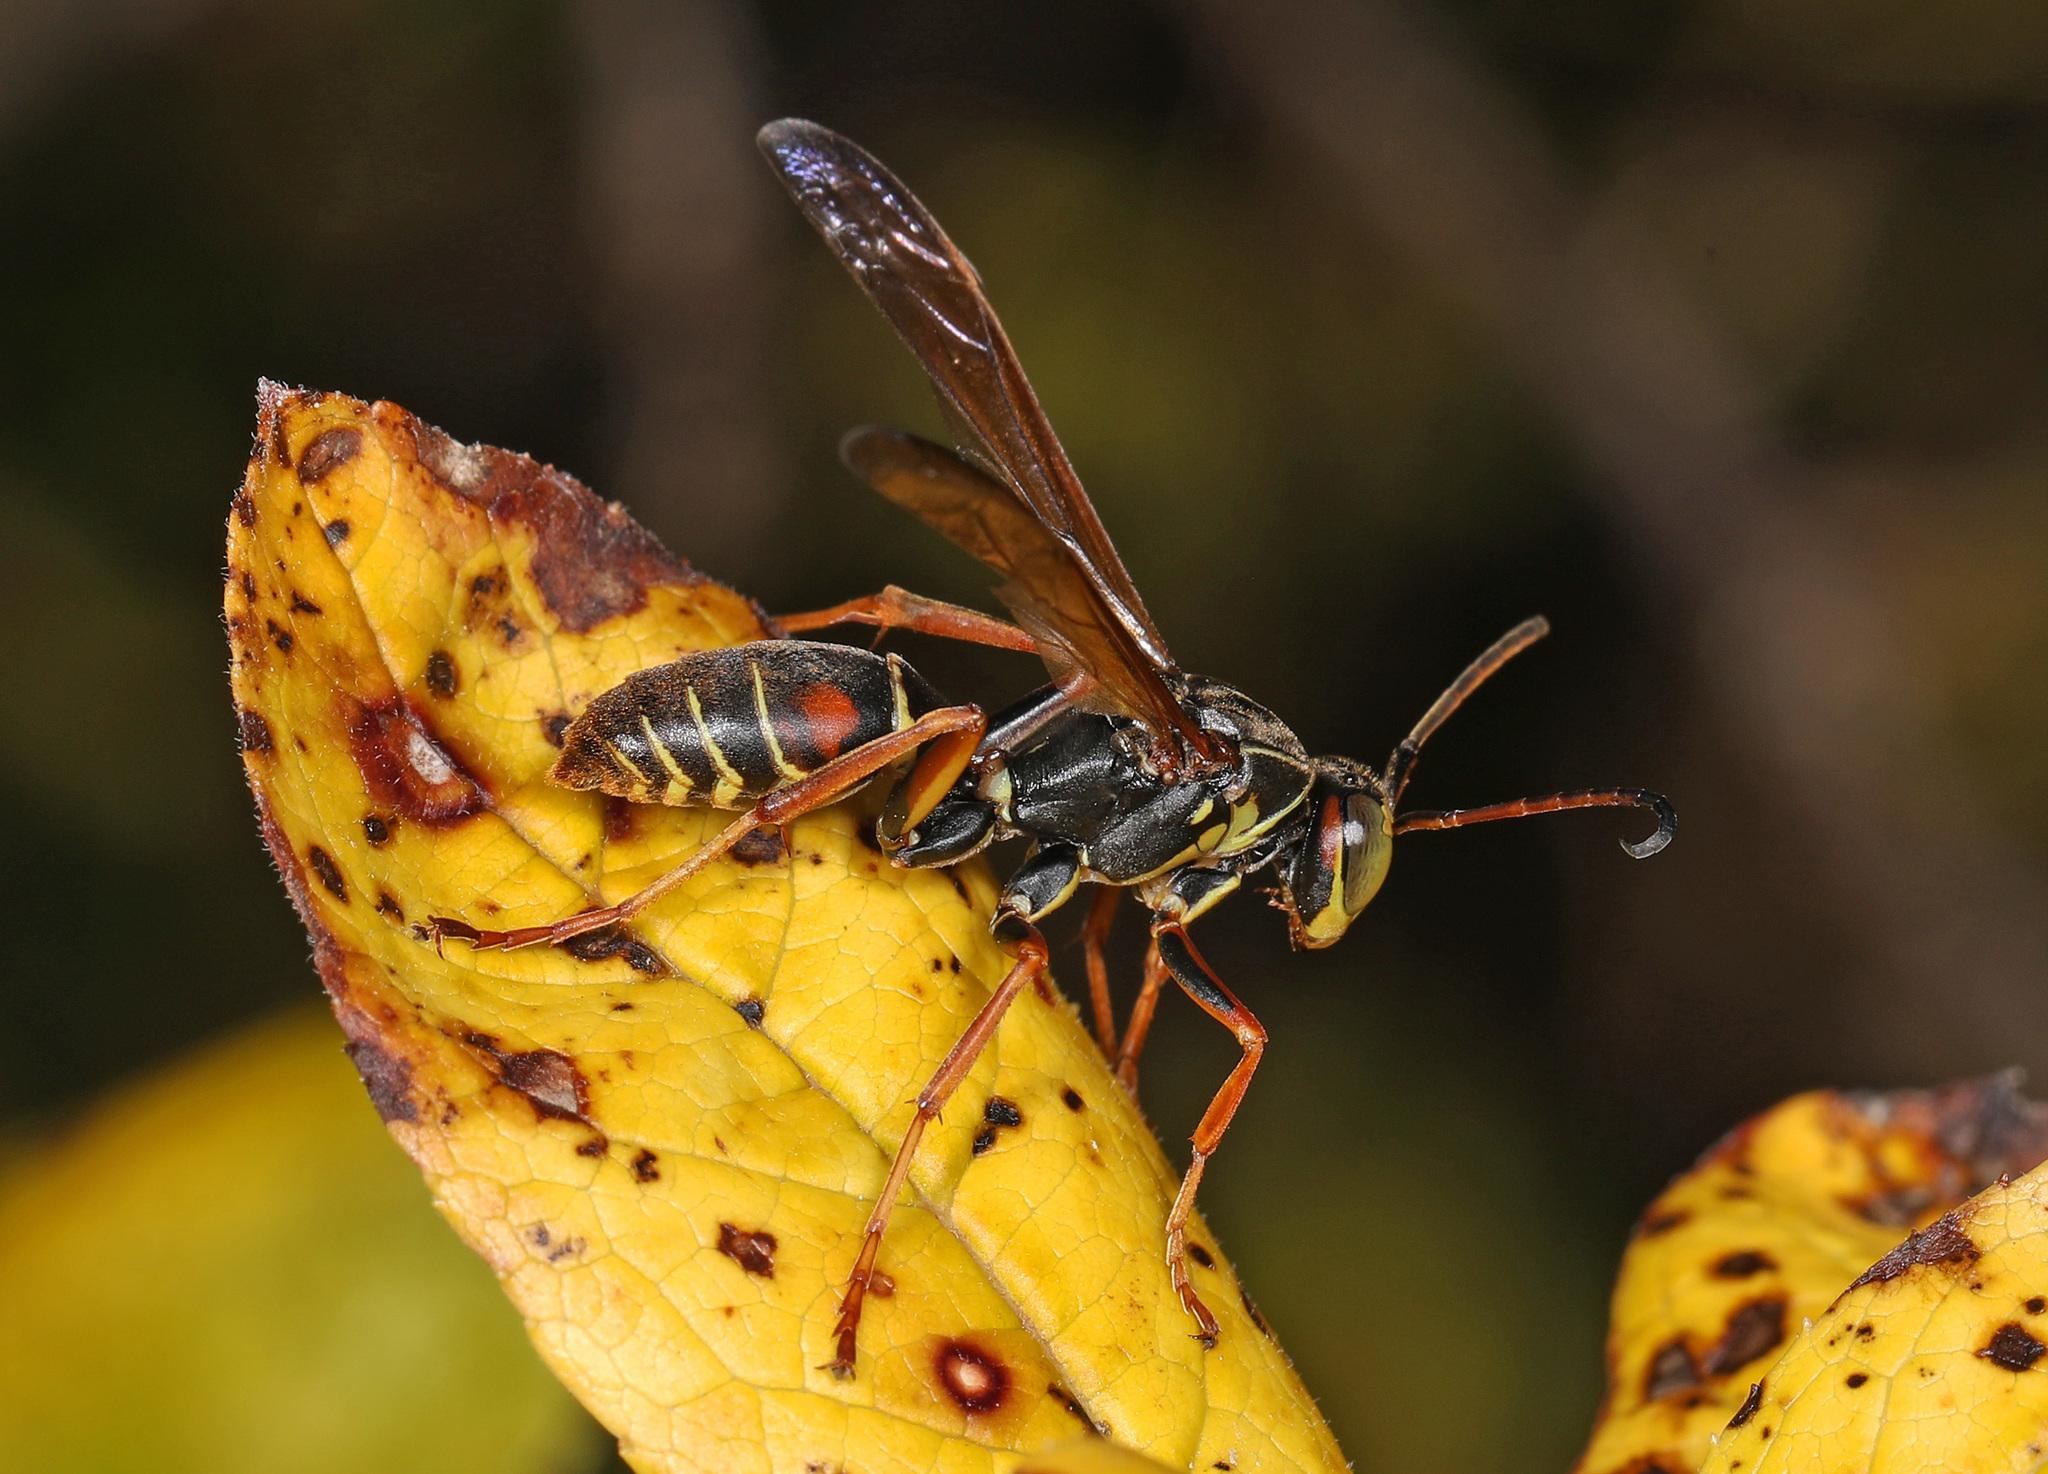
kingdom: Animalia
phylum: Arthropoda
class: Insecta
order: Hymenoptera
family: Eumenidae
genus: Polistes
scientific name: Polistes fuscatus
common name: Dark paper wasp
